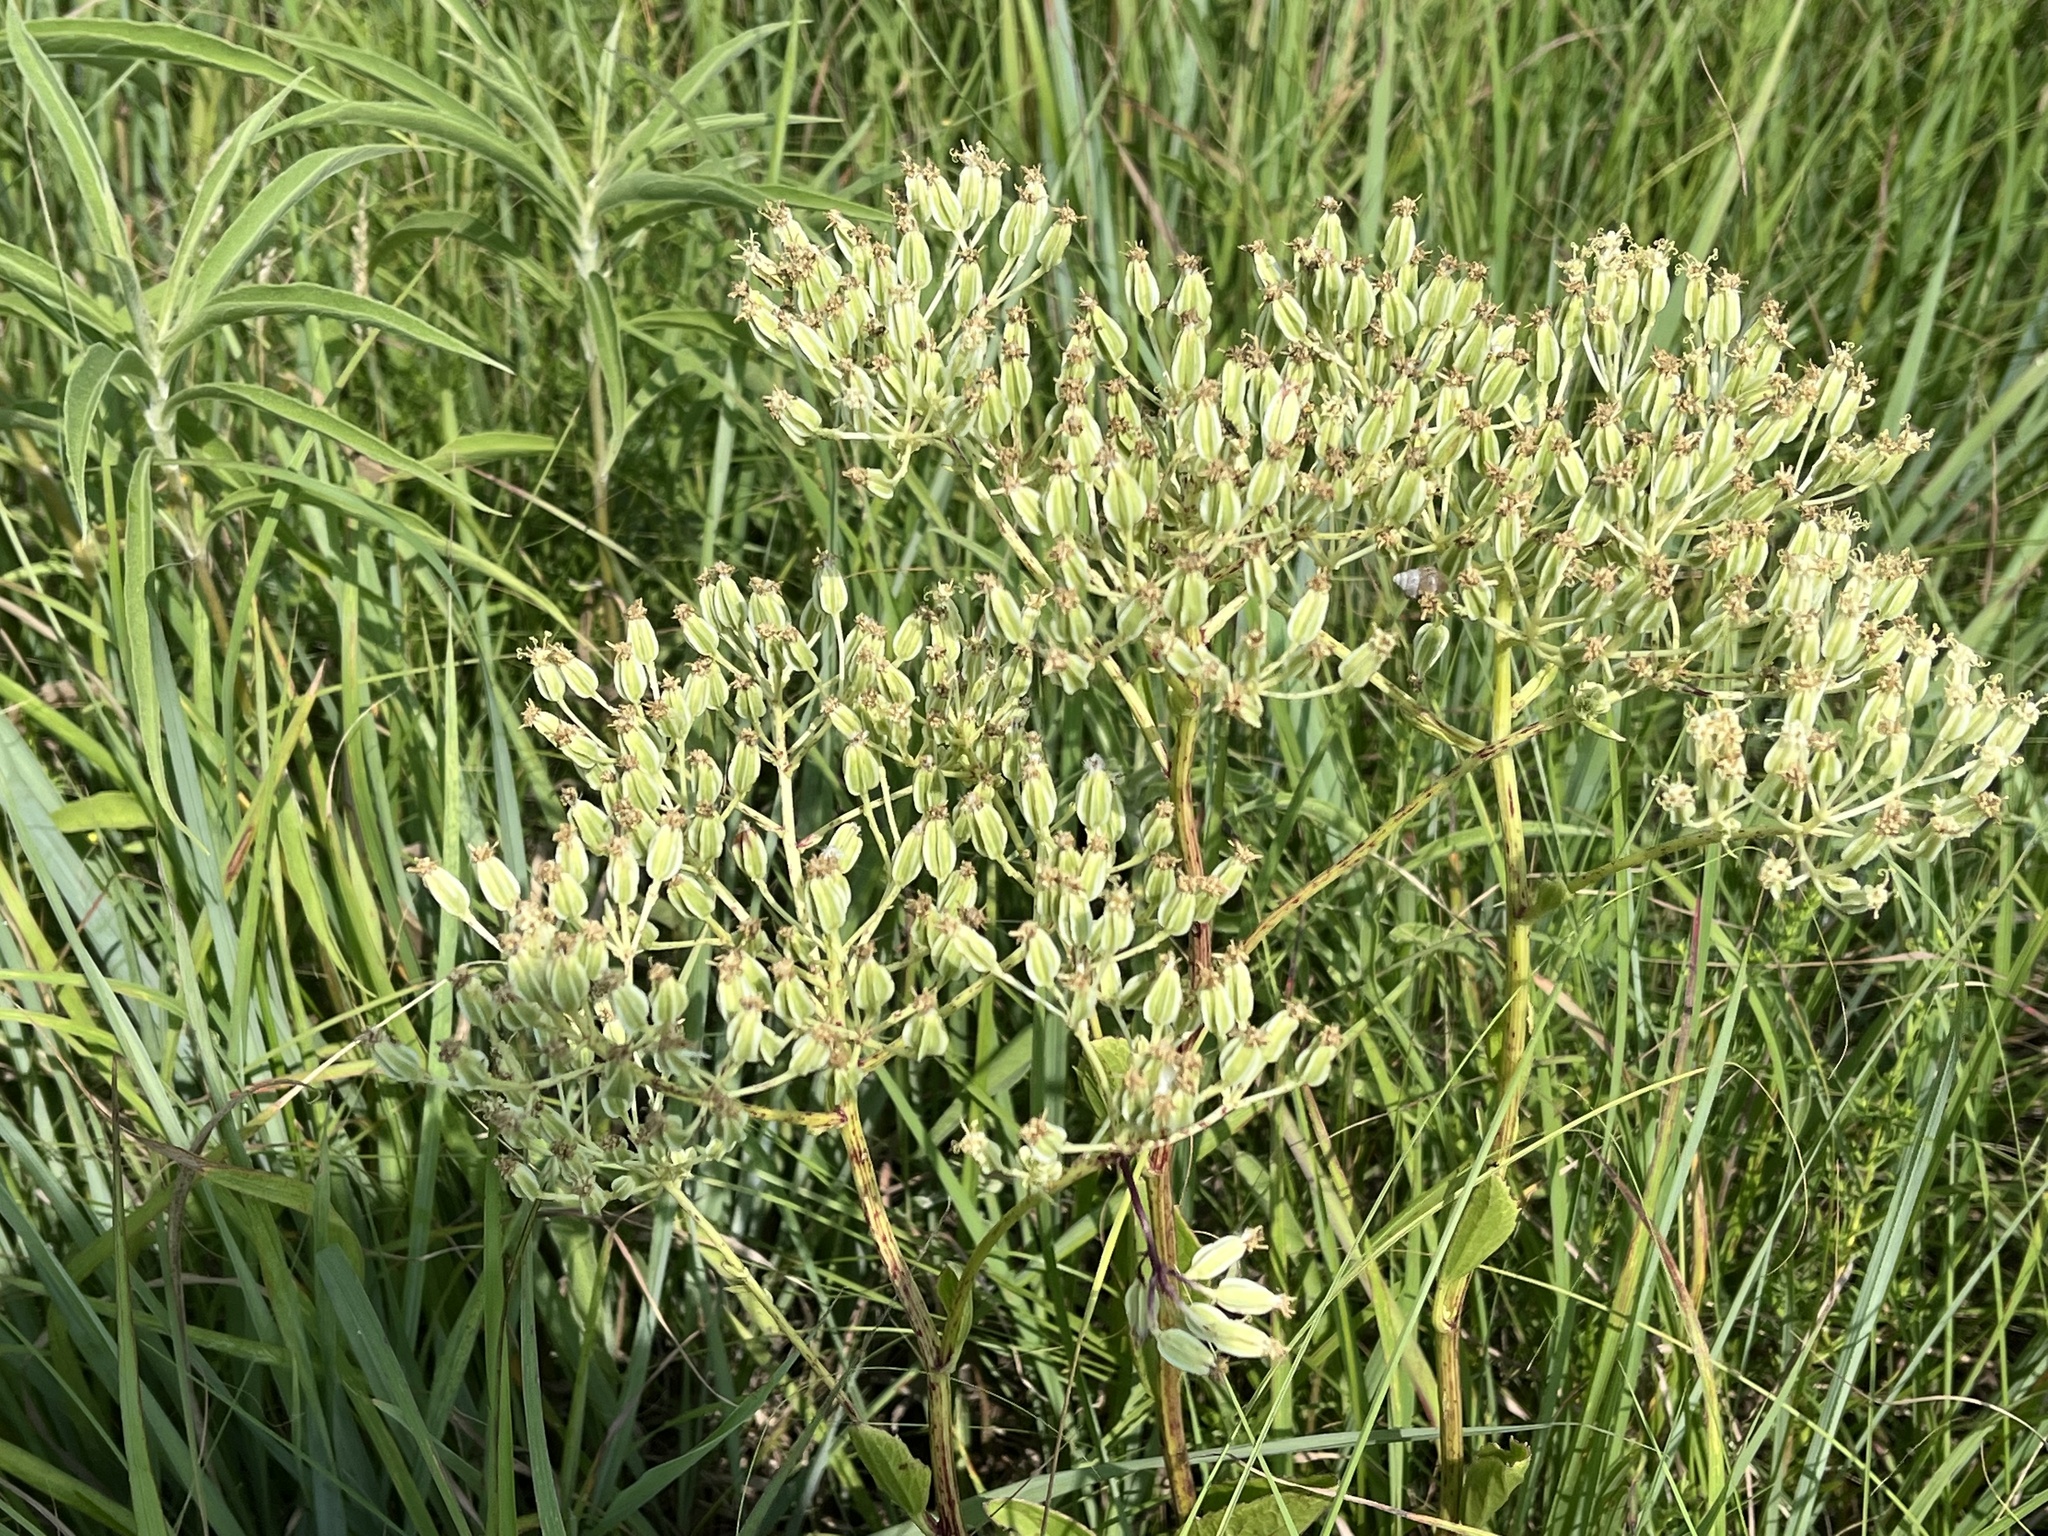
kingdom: Plantae
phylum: Tracheophyta
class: Magnoliopsida
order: Asterales
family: Asteraceae
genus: Arnoglossum
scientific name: Arnoglossum plantagineum
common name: Groove-stemmed indian-plantain
